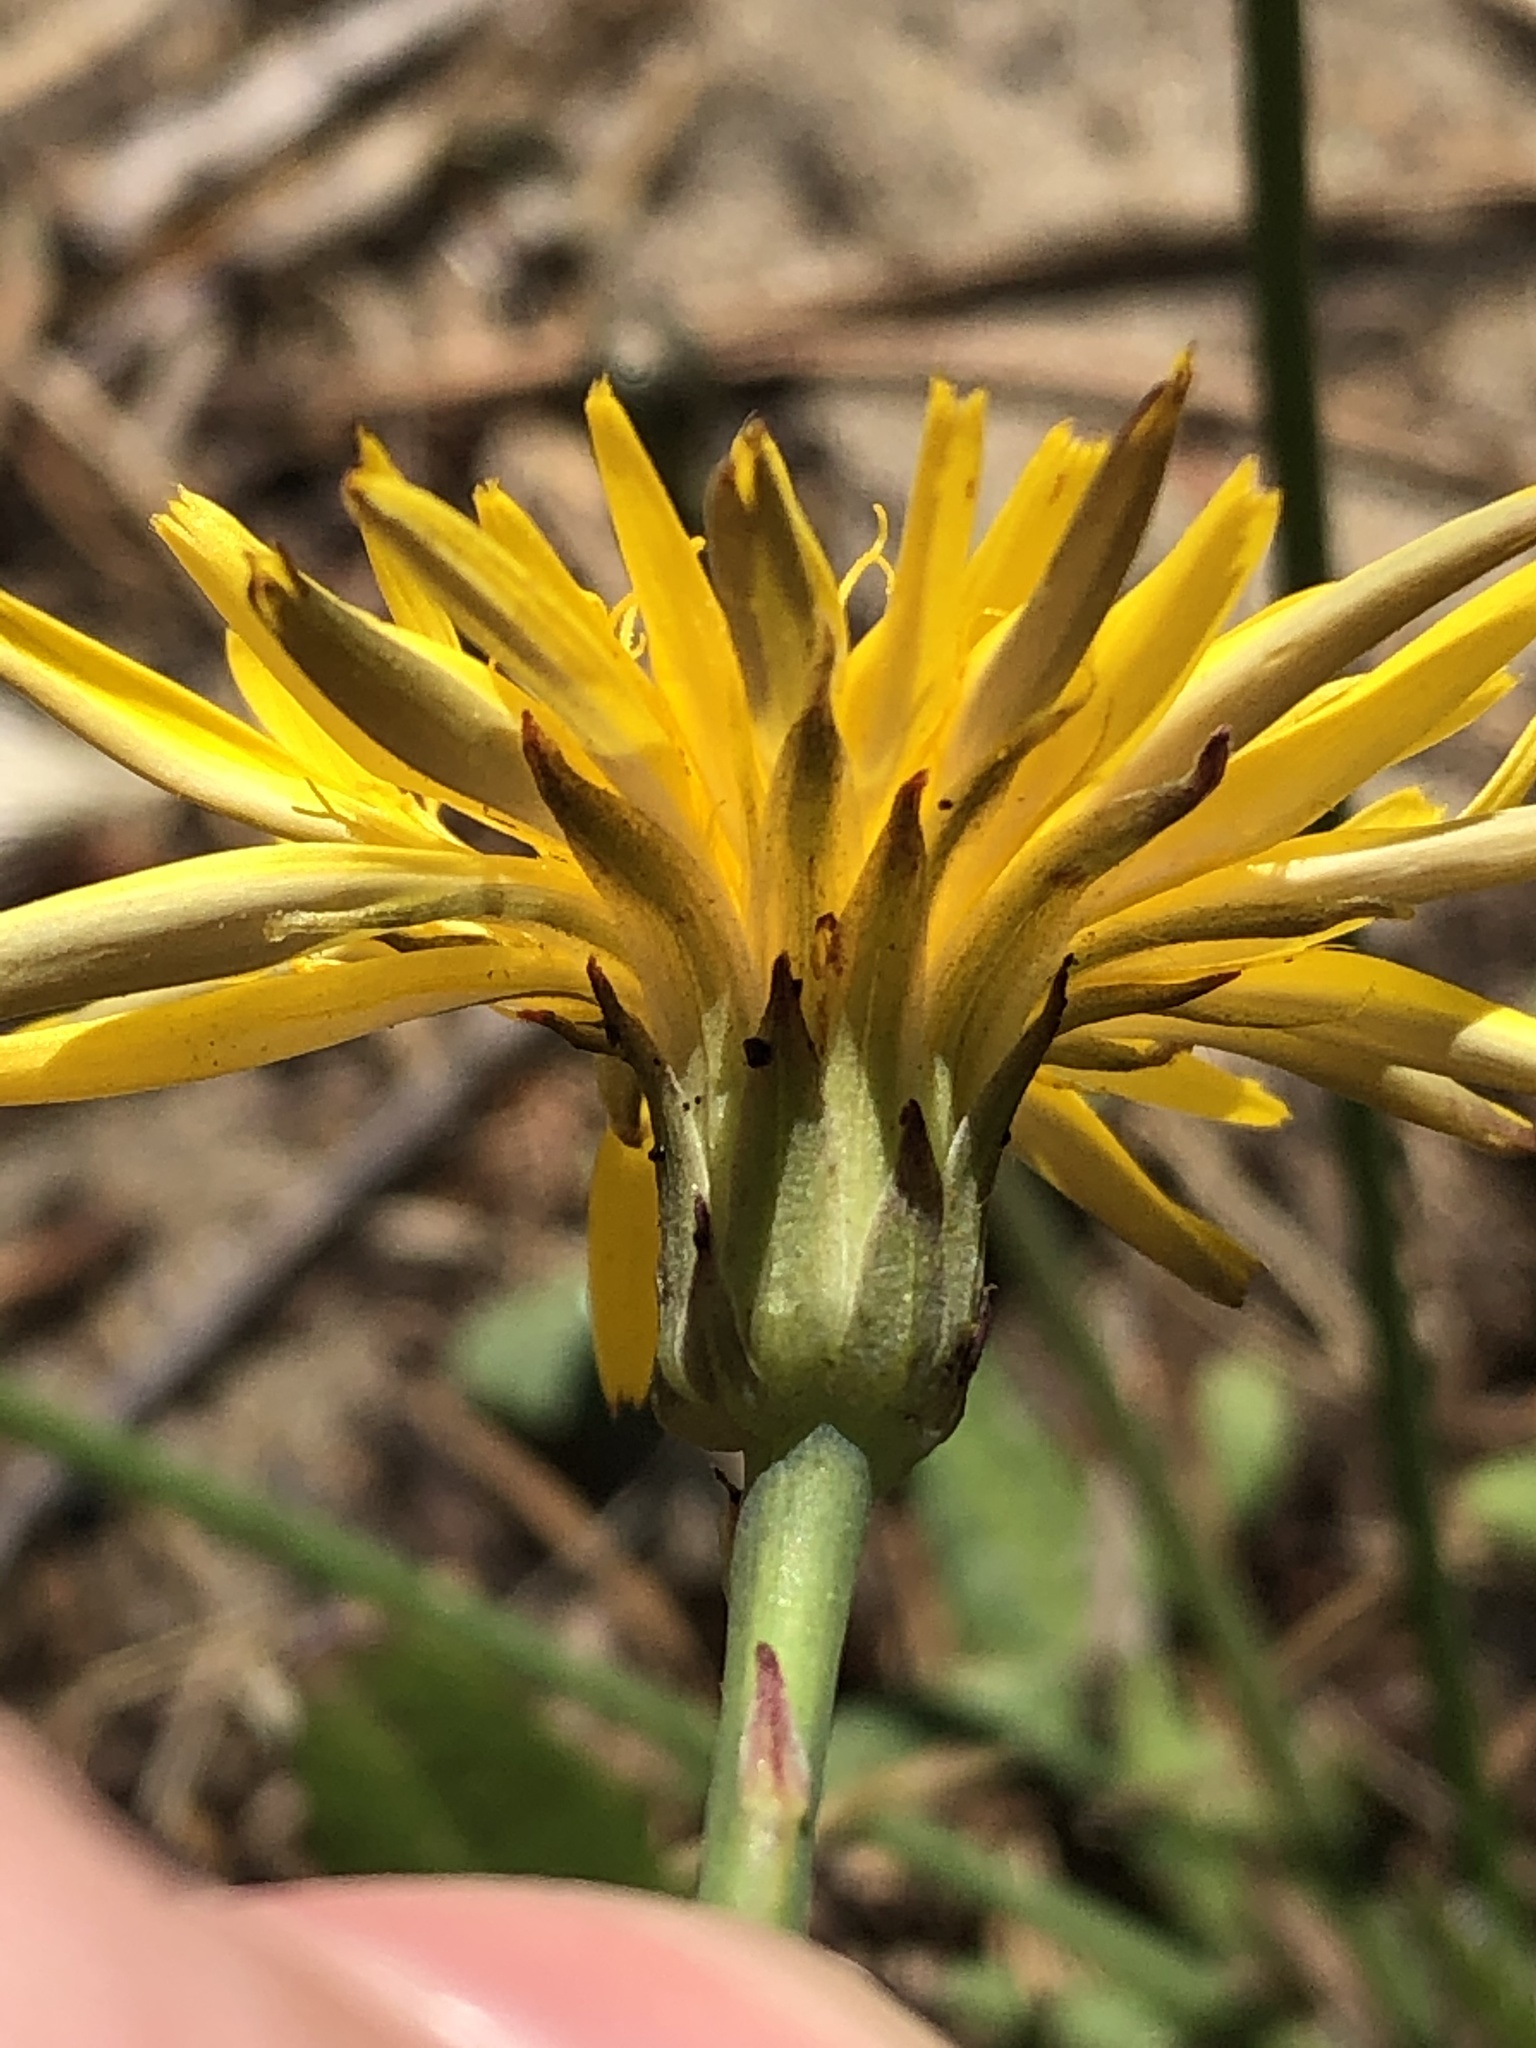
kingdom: Plantae
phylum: Tracheophyta
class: Magnoliopsida
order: Asterales
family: Asteraceae
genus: Hypochaeris
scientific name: Hypochaeris radicata
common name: Flatweed
